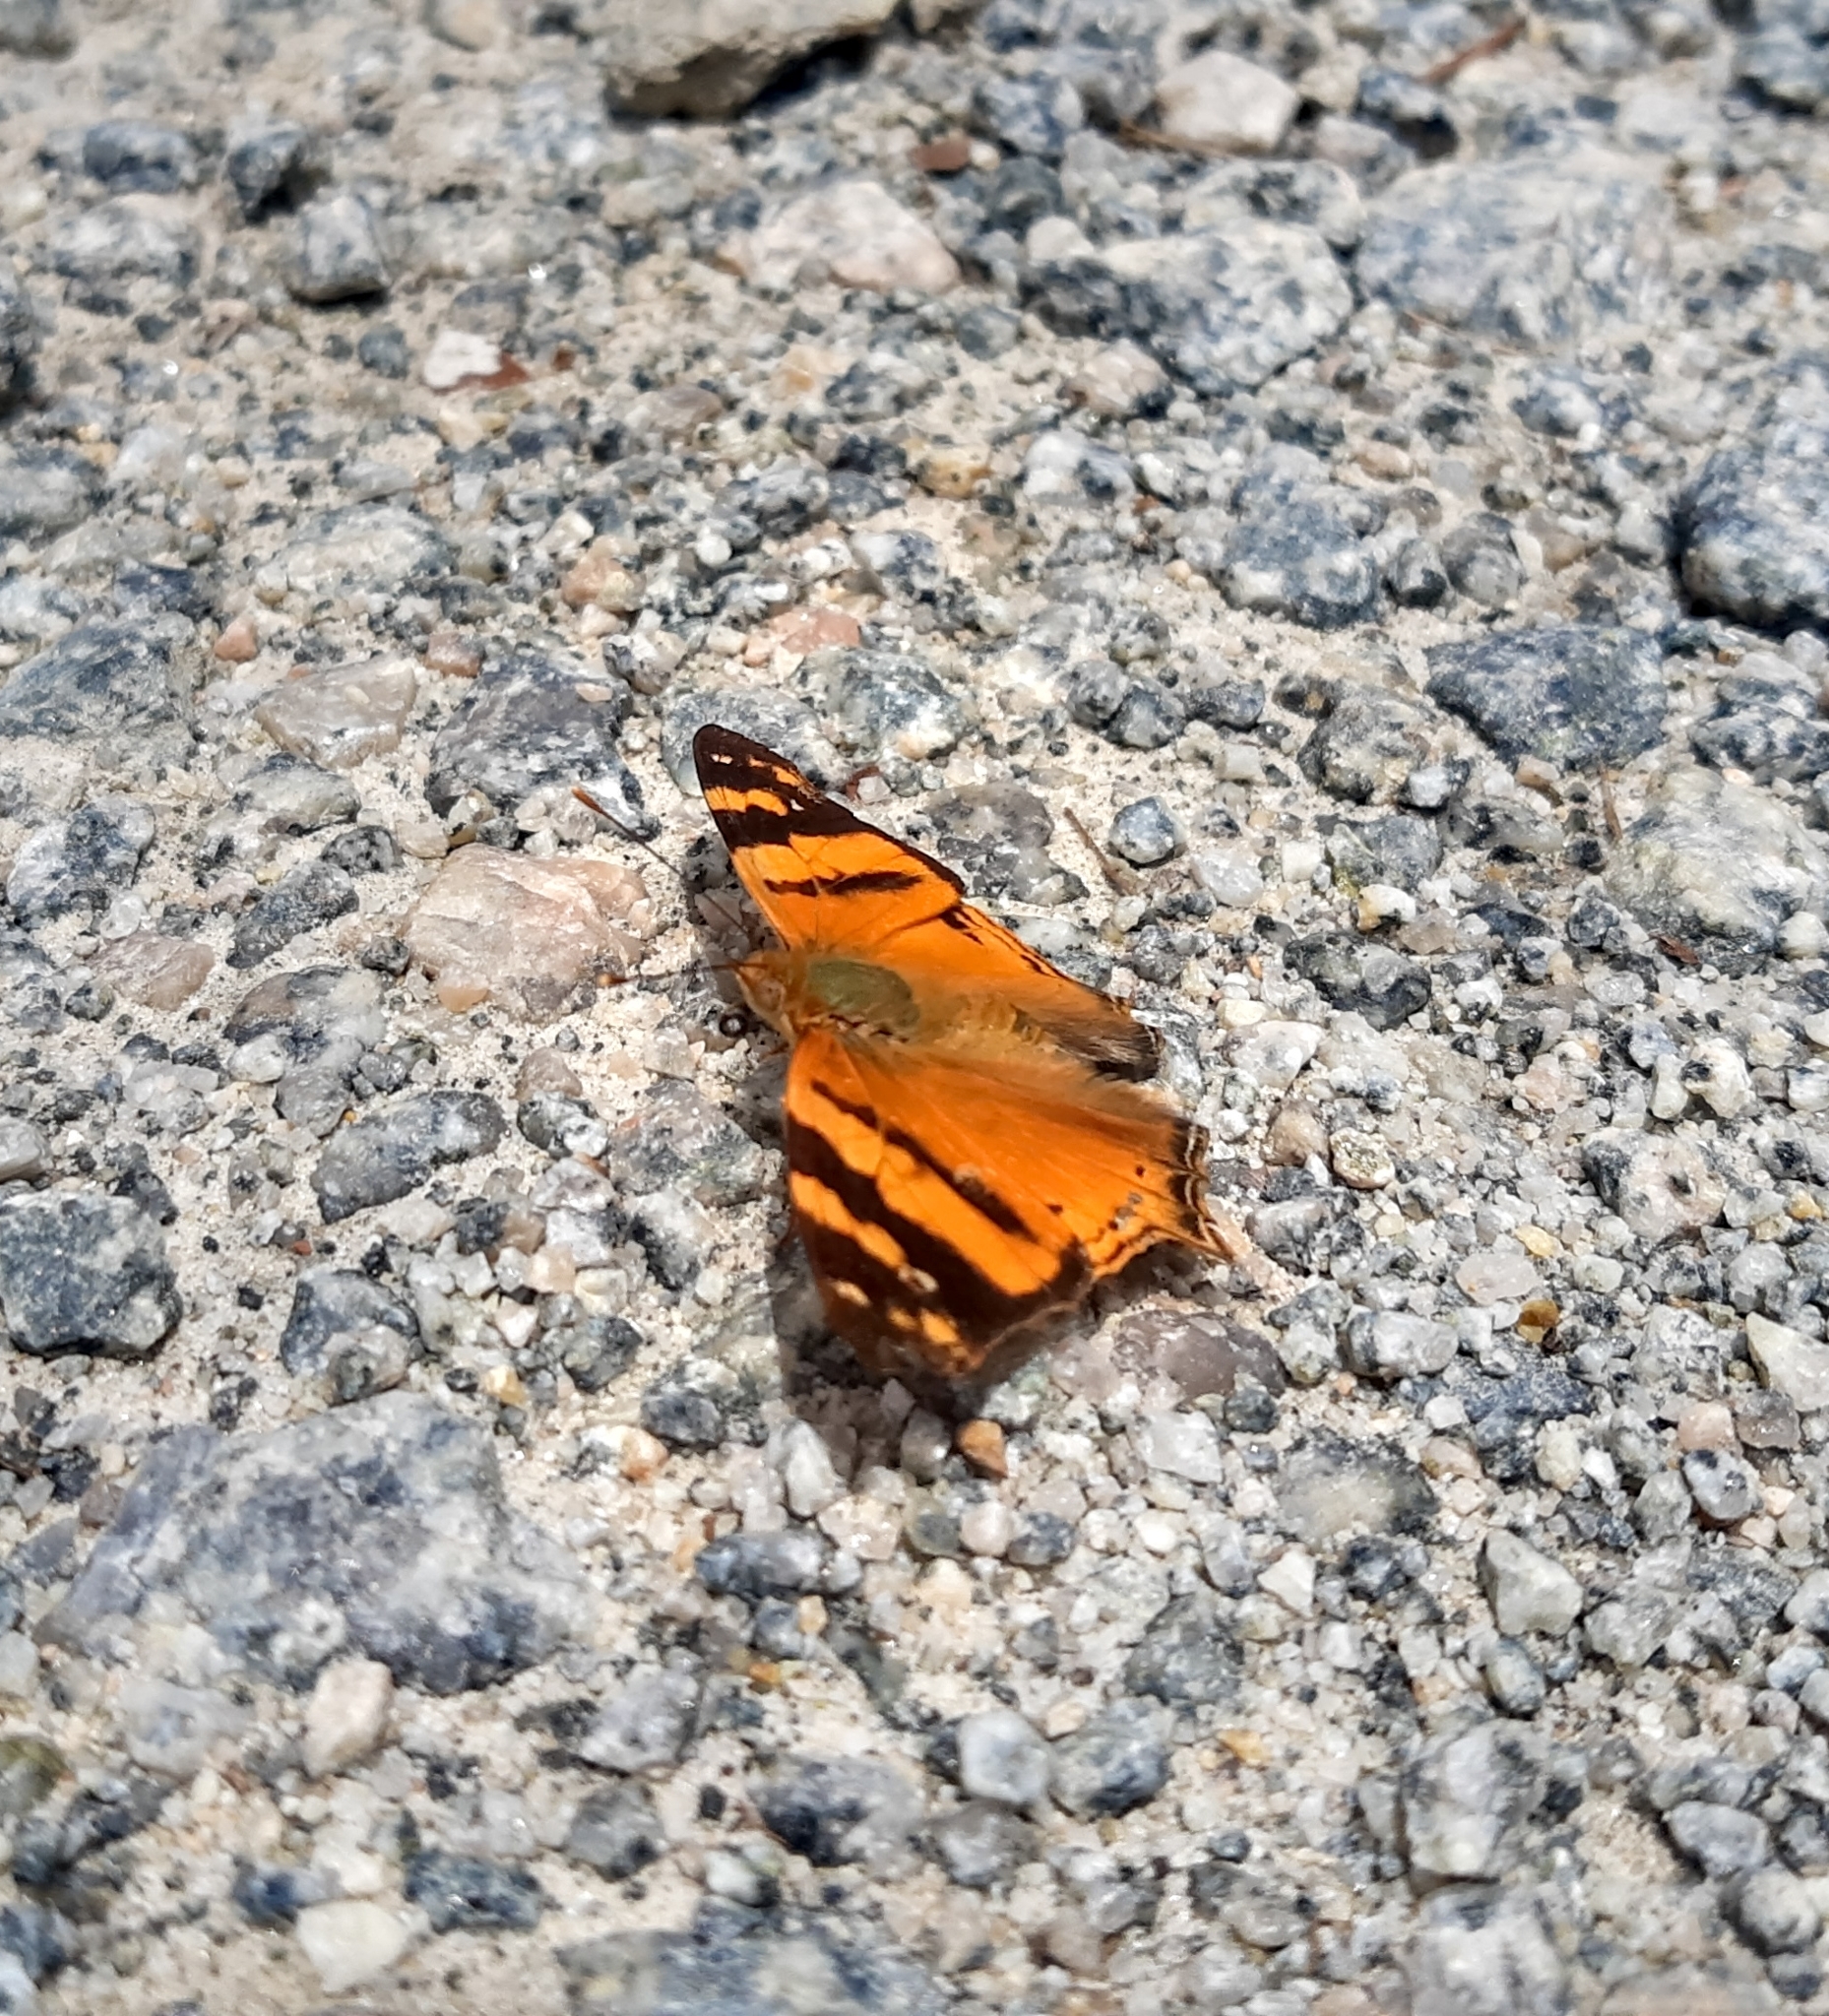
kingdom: Animalia
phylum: Arthropoda
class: Insecta
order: Lepidoptera
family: Nymphalidae
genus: Hypanartia
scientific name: Hypanartia lethe
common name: Orange mapwing
